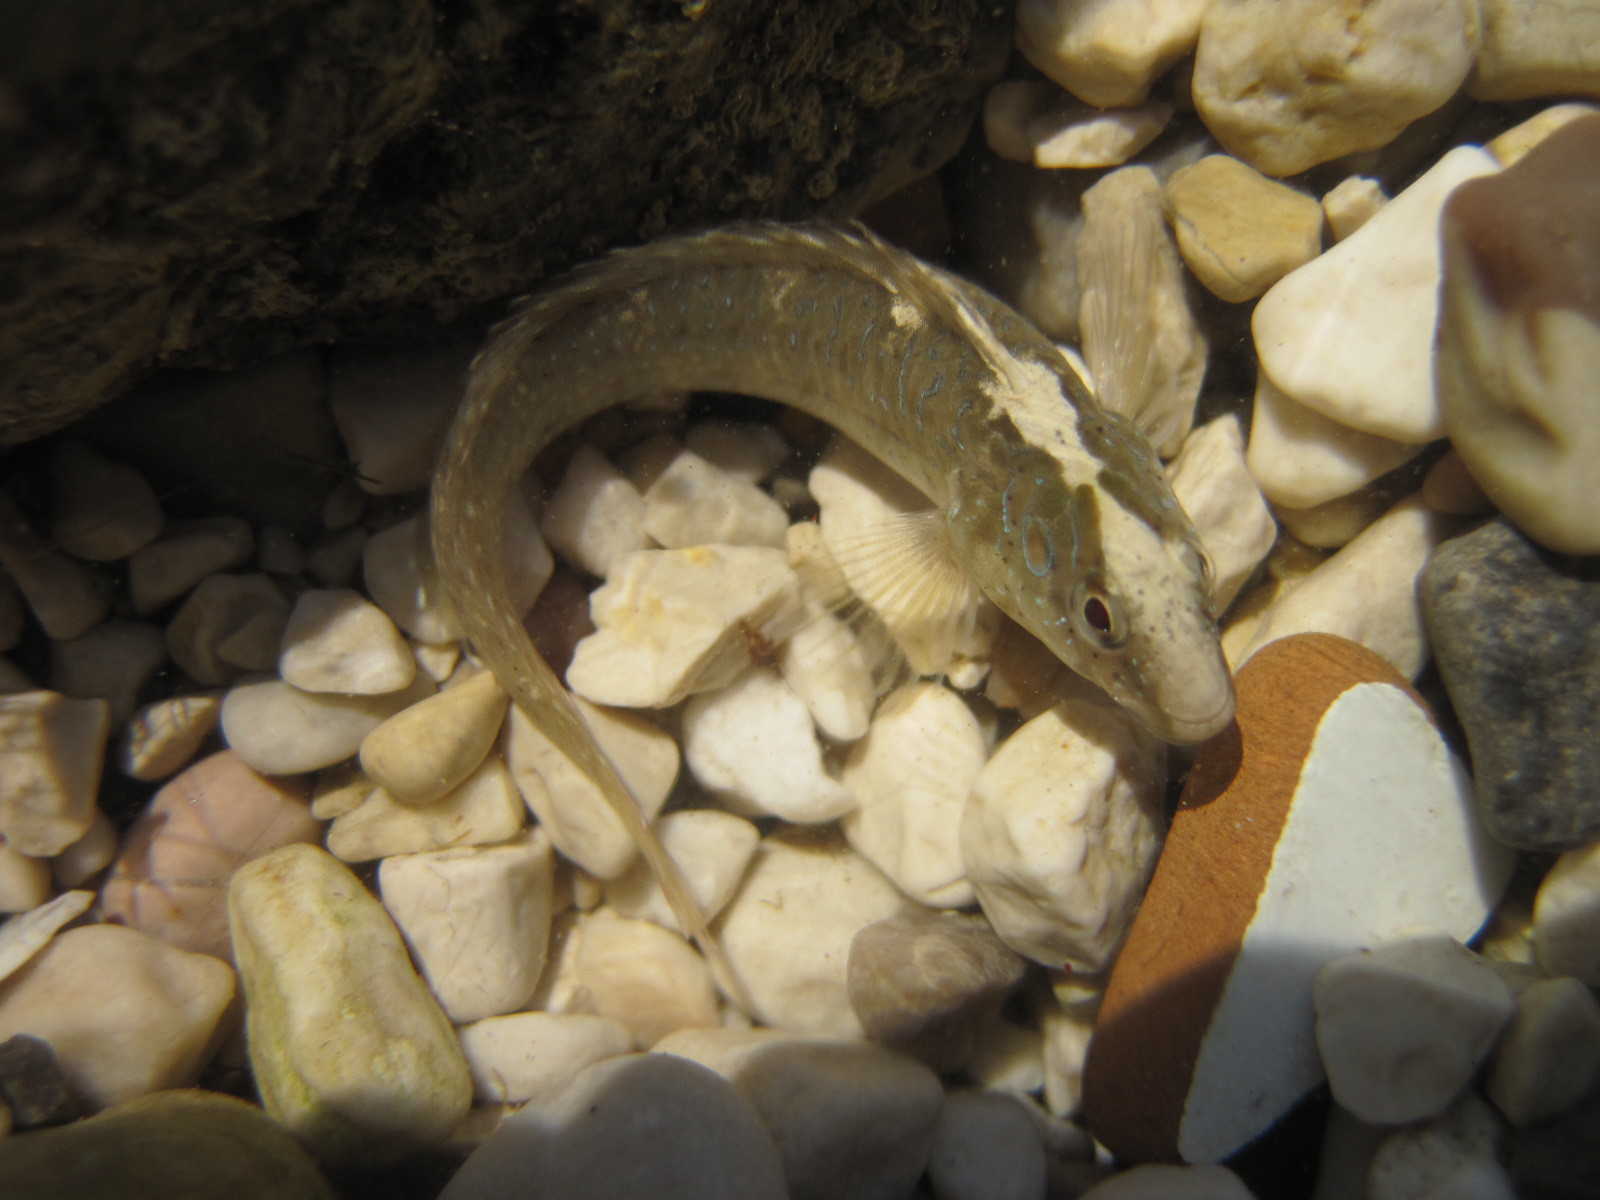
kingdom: Animalia
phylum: Chordata
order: Perciformes
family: Blenniidae
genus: Salaria
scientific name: Salaria pavo
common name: Peacock blenny
